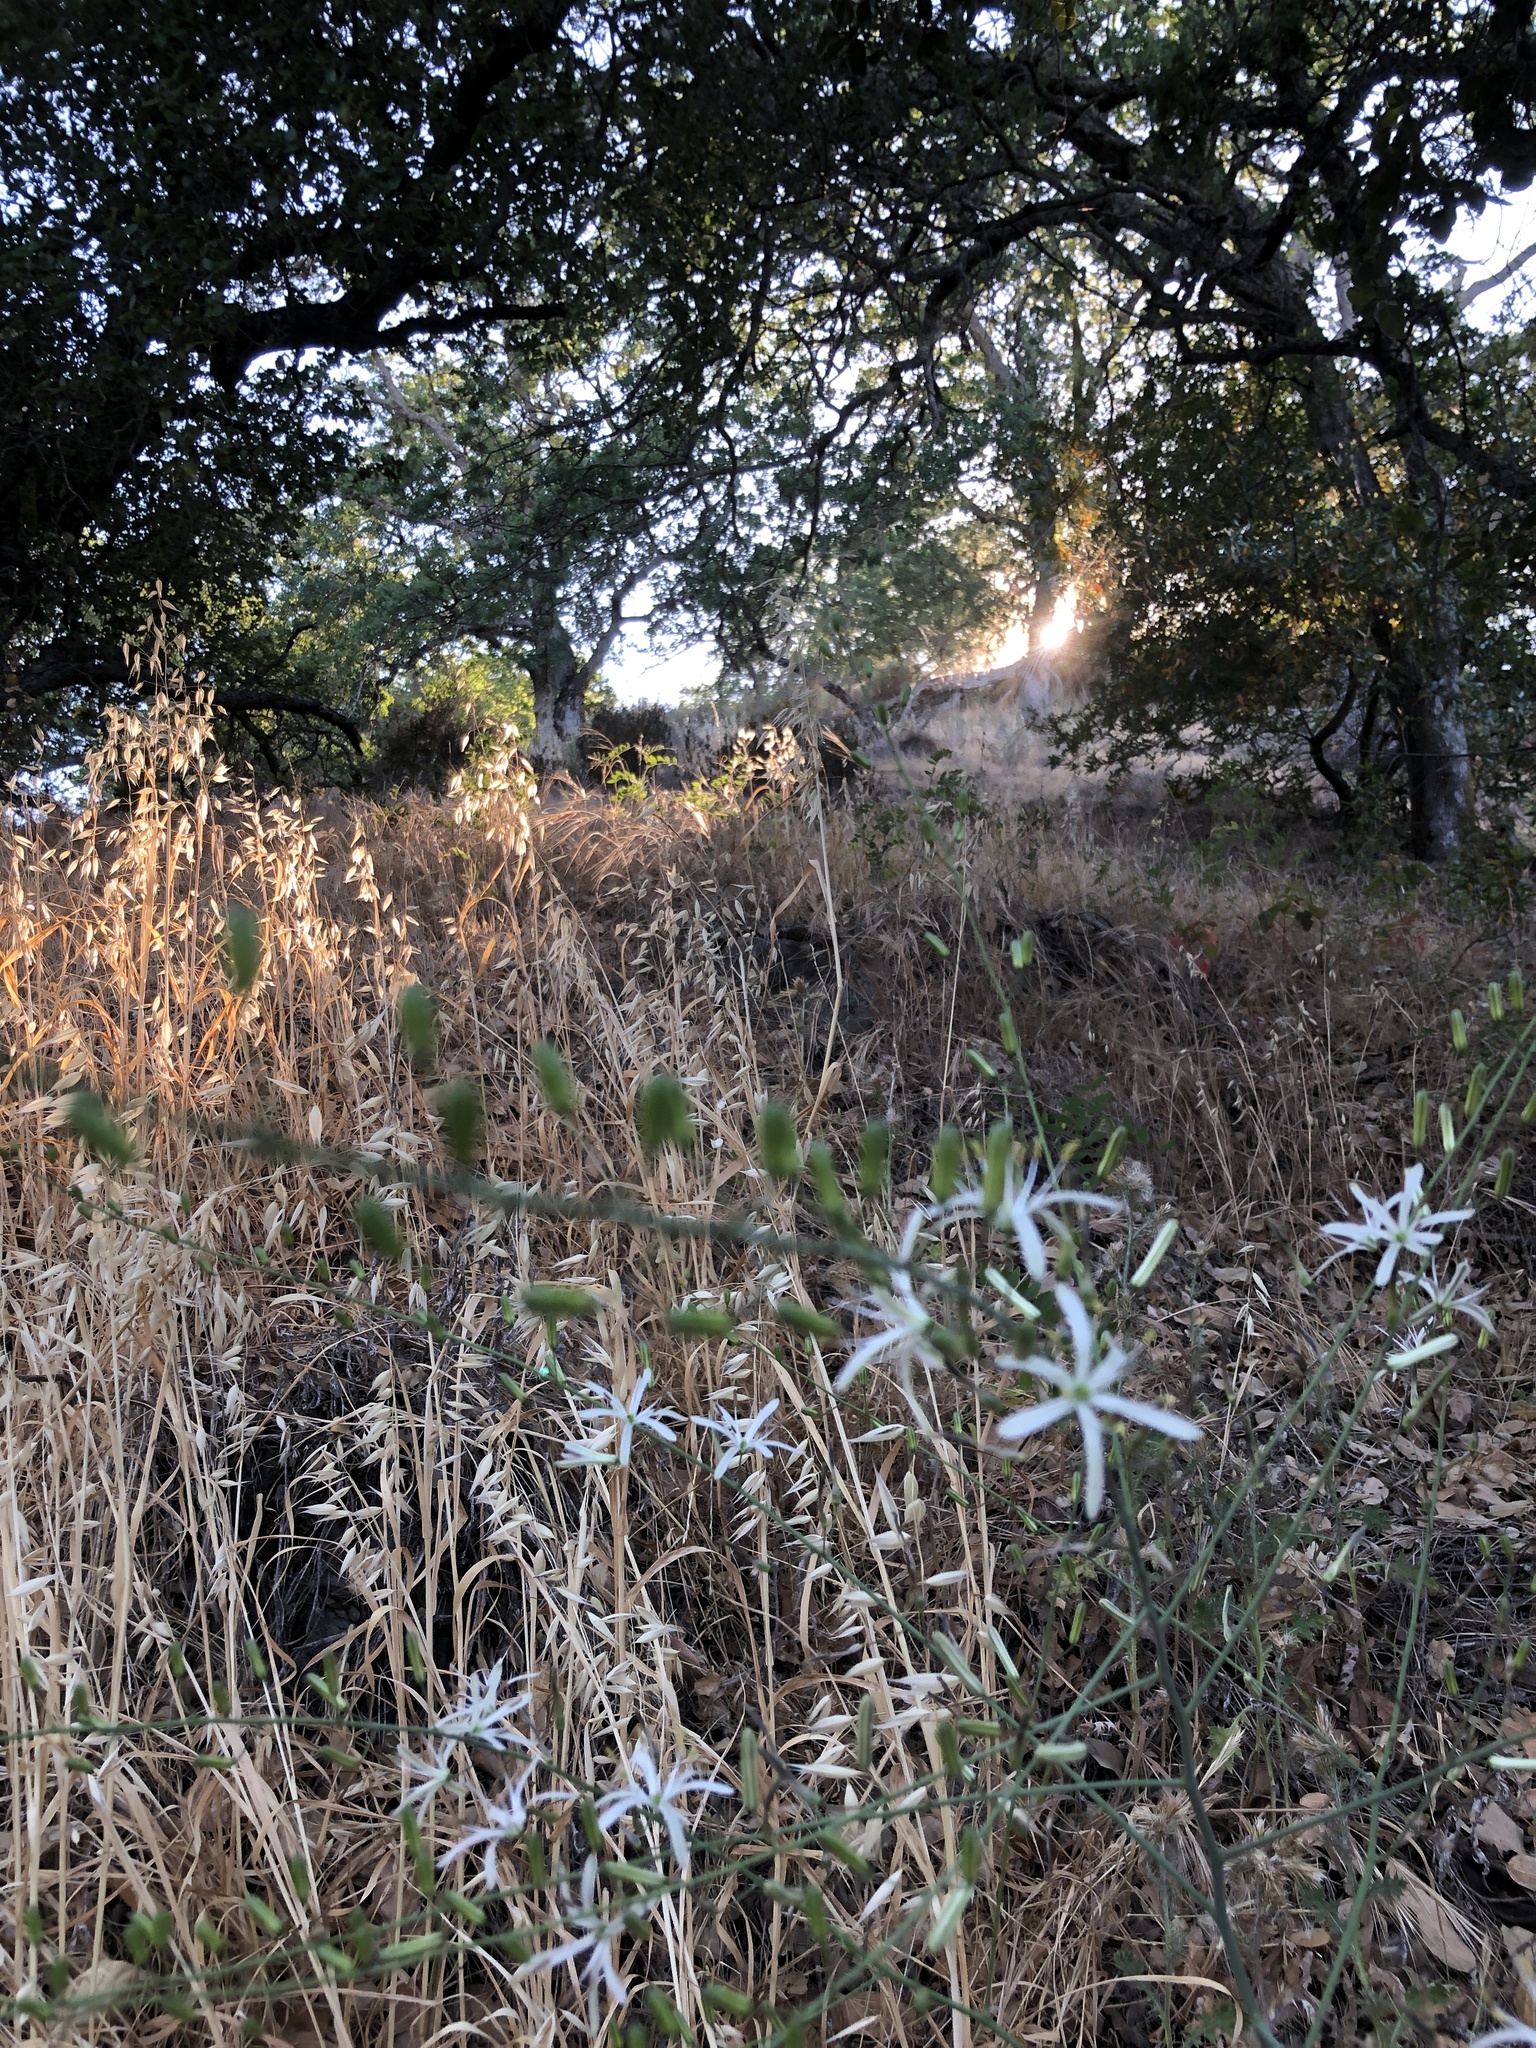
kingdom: Plantae
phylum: Tracheophyta
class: Liliopsida
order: Asparagales
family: Asparagaceae
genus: Chlorogalum
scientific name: Chlorogalum pomeridianum
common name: Amole
